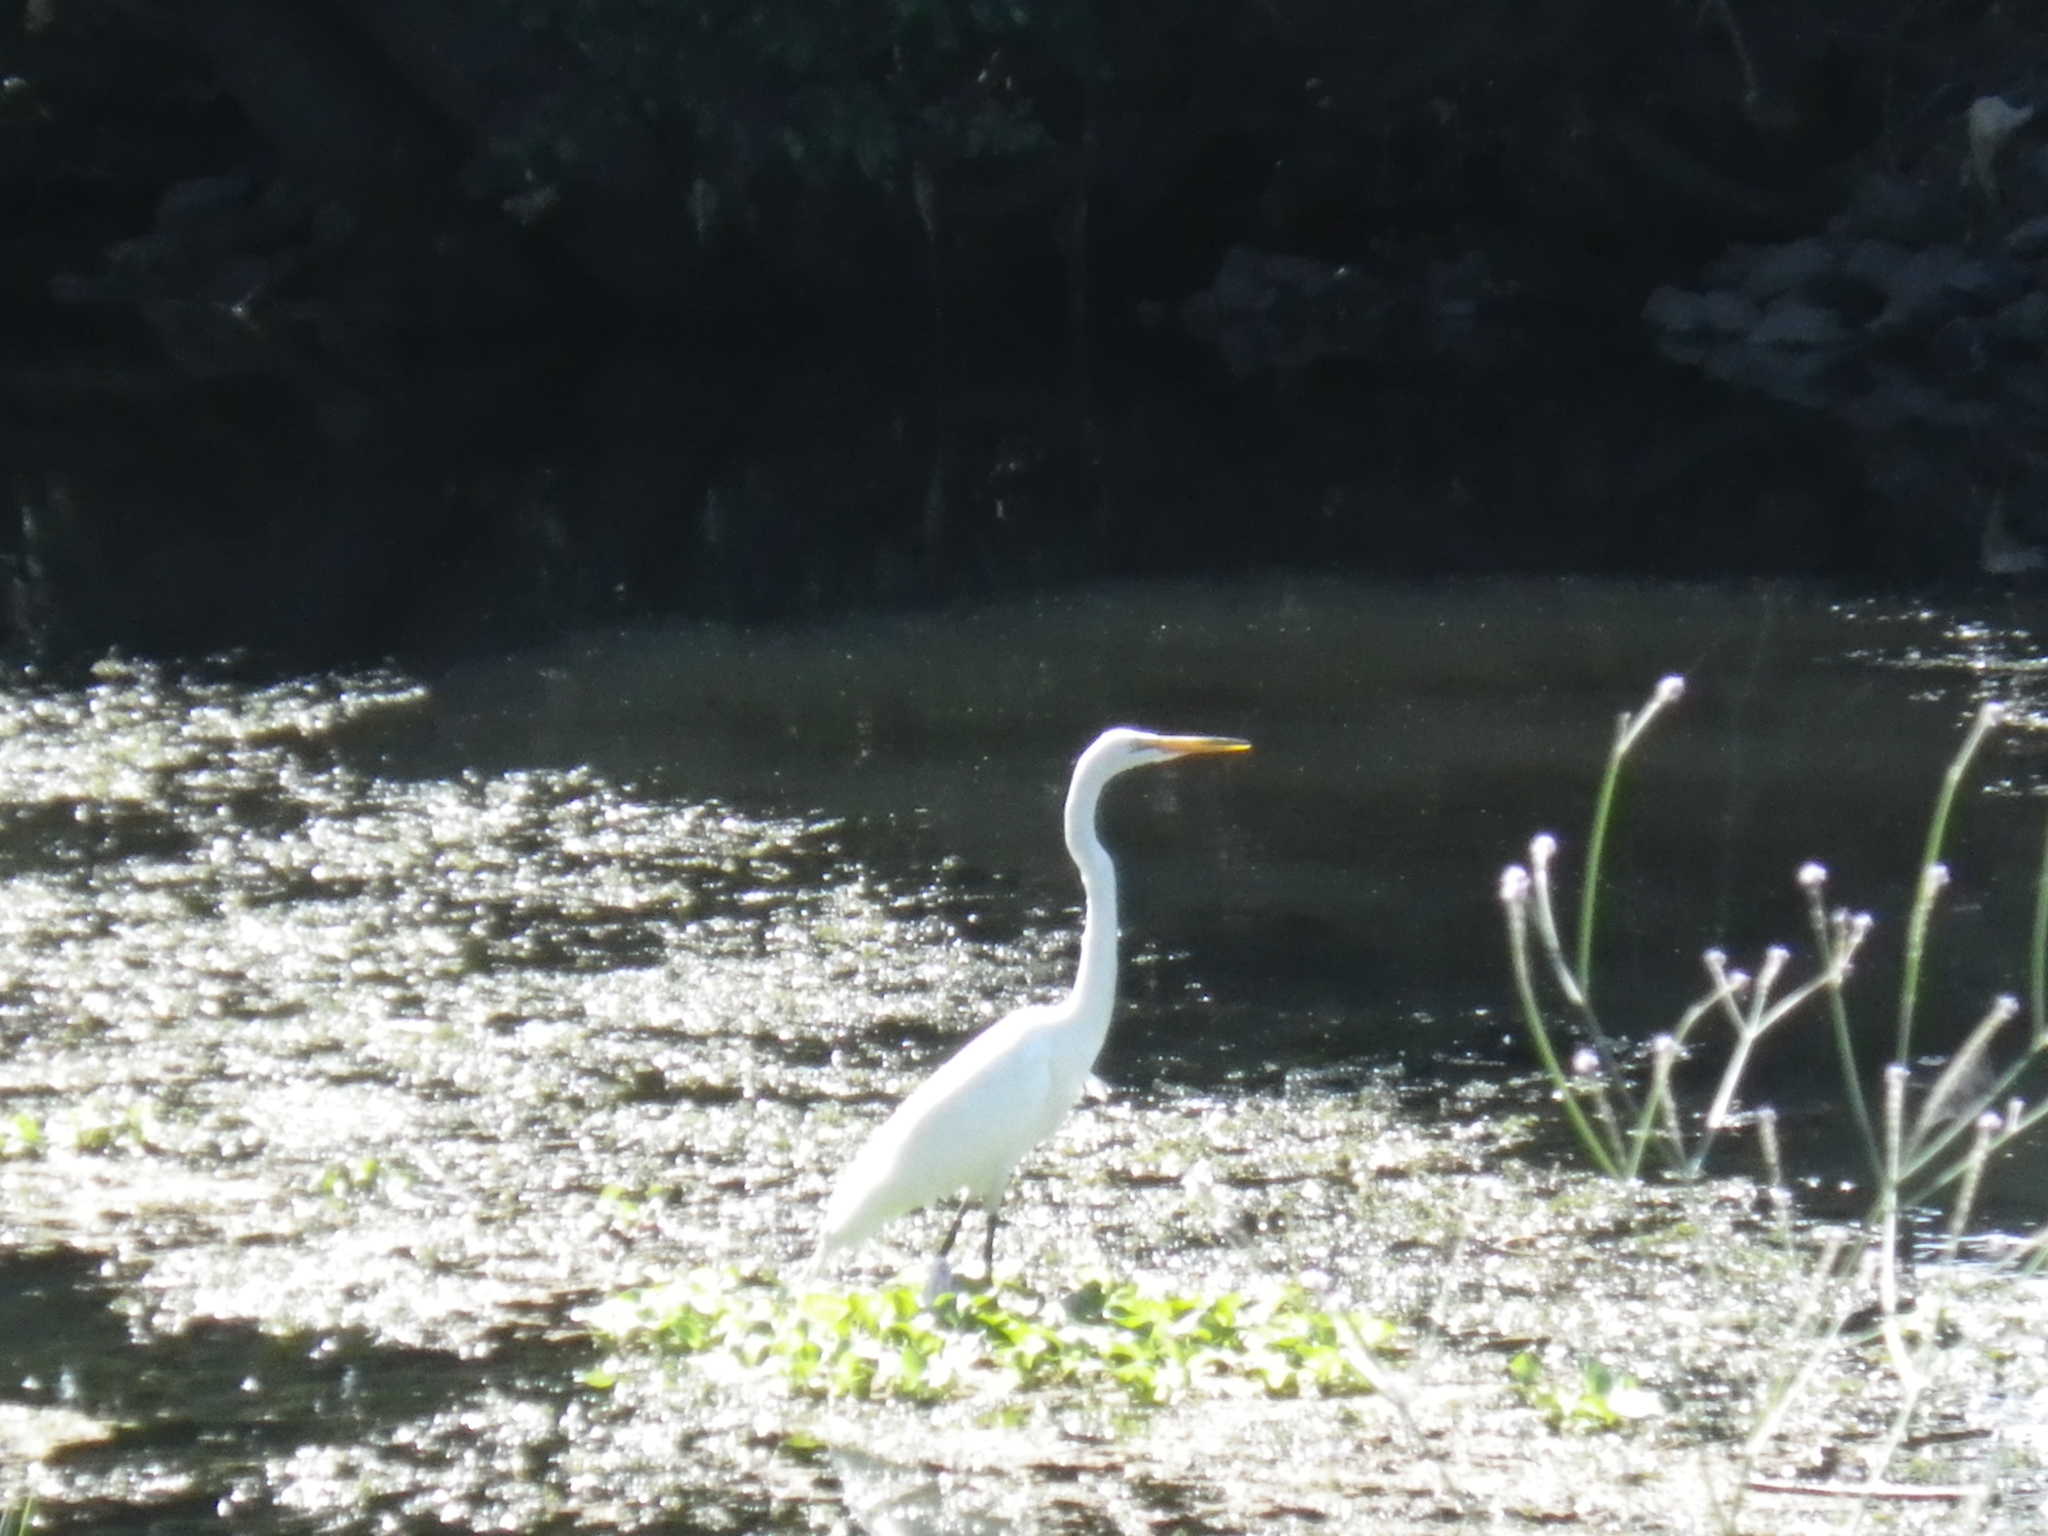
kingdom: Animalia
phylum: Chordata
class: Aves
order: Pelecaniformes
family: Ardeidae
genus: Ardea
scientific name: Ardea alba
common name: Great egret
